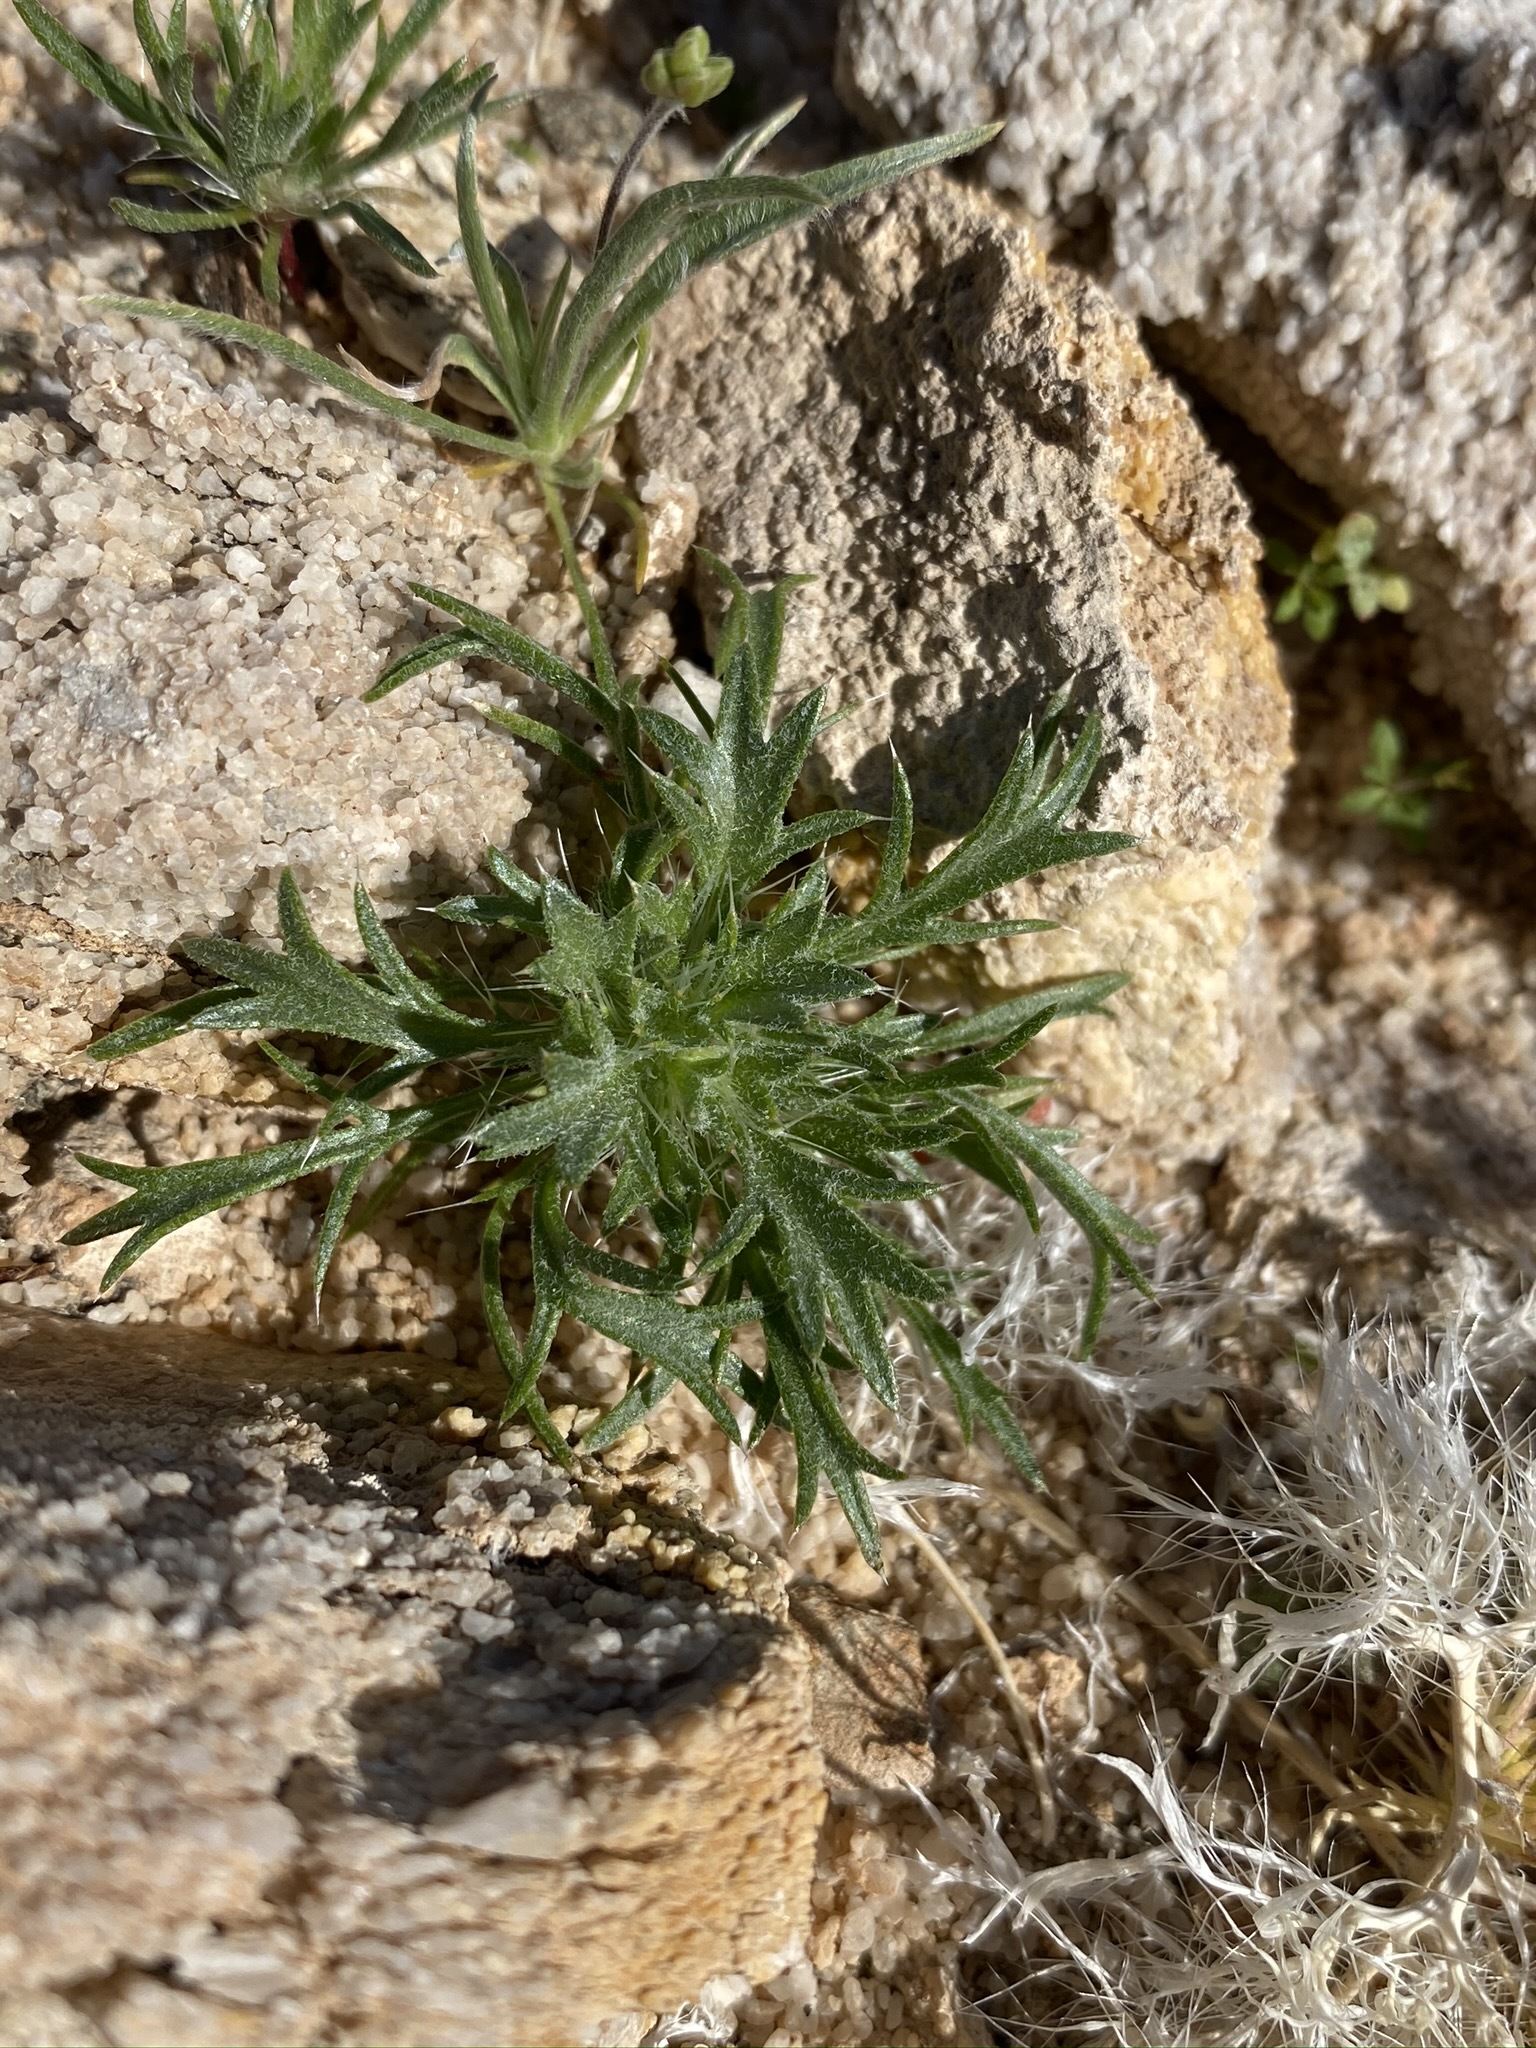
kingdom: Plantae
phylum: Tracheophyta
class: Magnoliopsida
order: Ericales
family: Polemoniaceae
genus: Langloisia
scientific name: Langloisia setosissima
